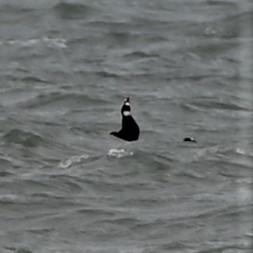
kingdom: Animalia
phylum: Chordata
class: Aves
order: Anseriformes
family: Anatidae
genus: Melanitta
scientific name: Melanitta perspicillata
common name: Surf scoter
